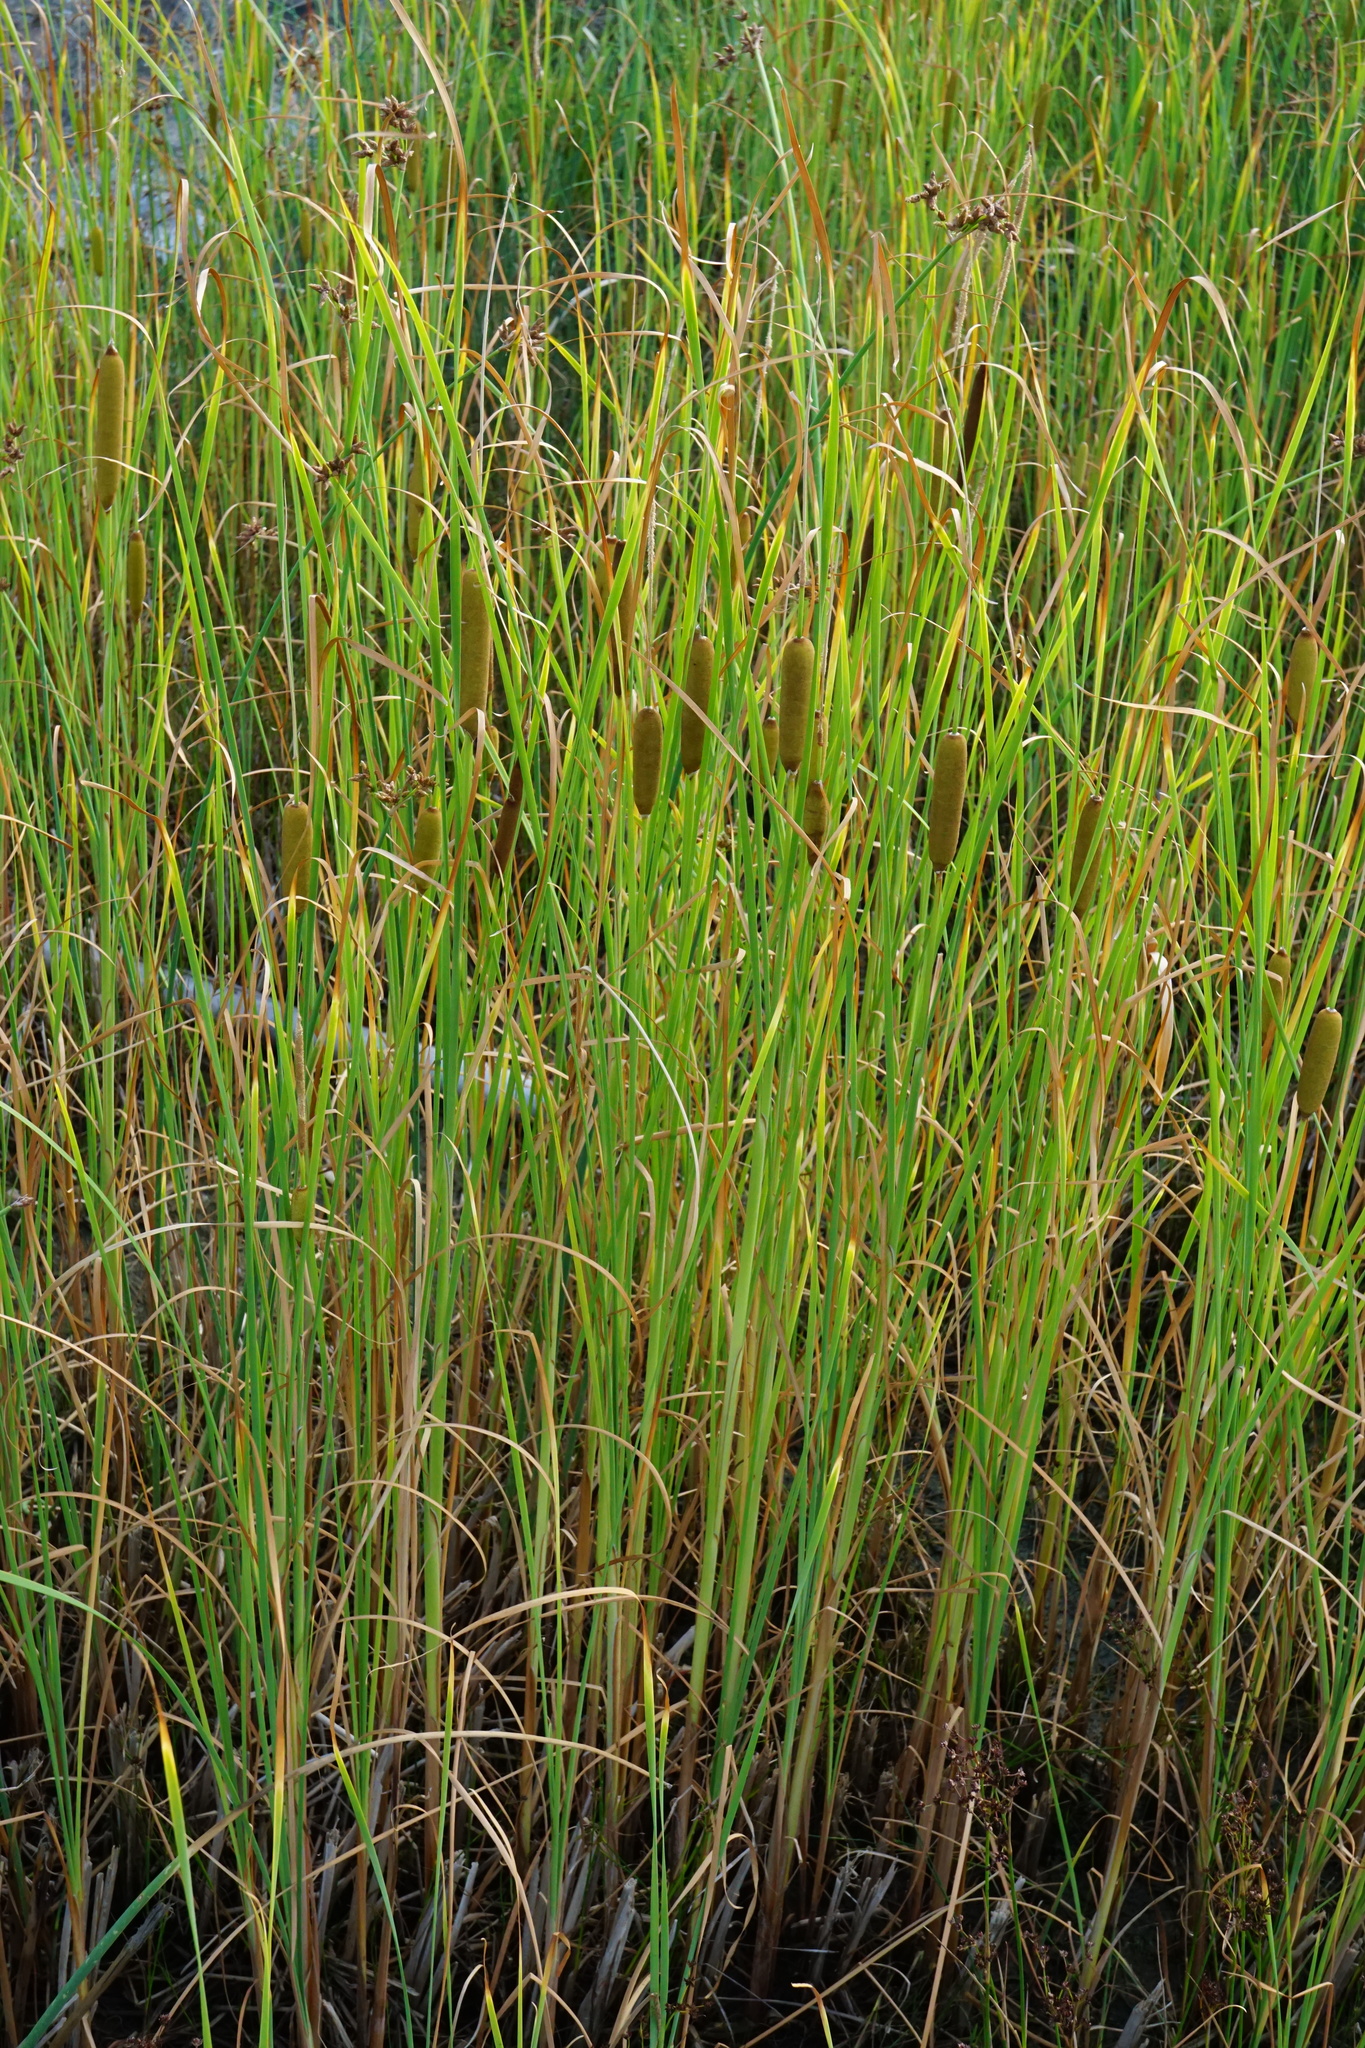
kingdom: Plantae
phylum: Tracheophyta
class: Liliopsida
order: Poales
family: Typhaceae
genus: Typha
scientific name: Typha laxmannii
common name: Laxman’s bulrush
